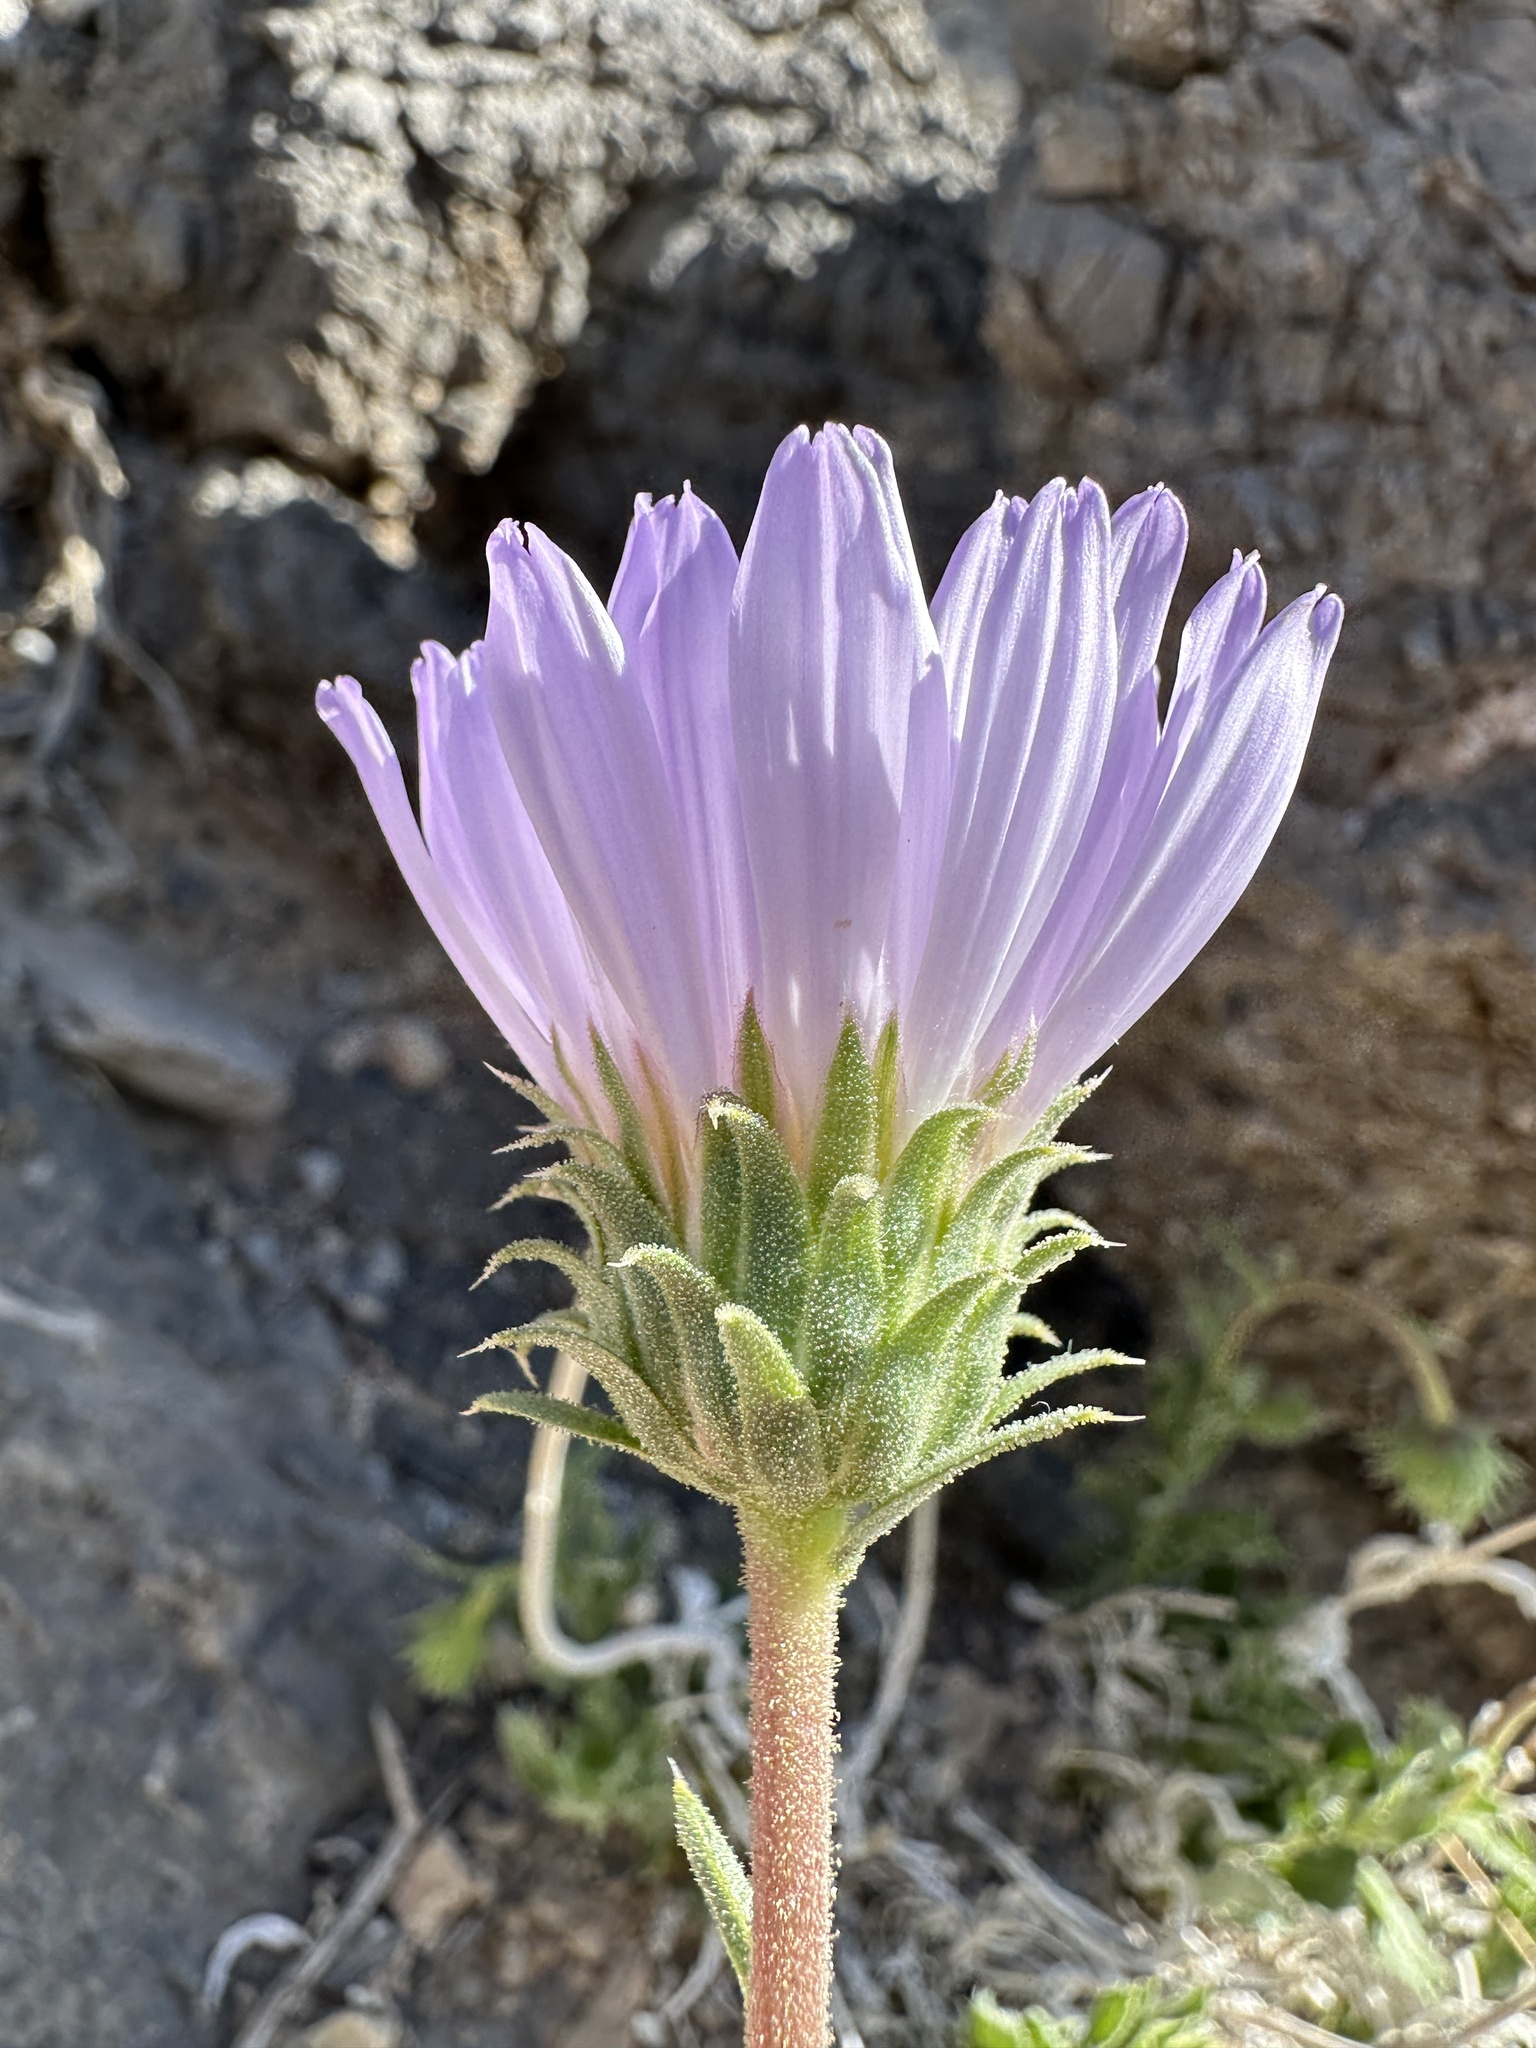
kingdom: Plantae
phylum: Tracheophyta
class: Magnoliopsida
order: Asterales
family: Asteraceae
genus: Xylorhiza
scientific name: Xylorhiza tortifolia
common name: Hurt-leaf woody-aster
